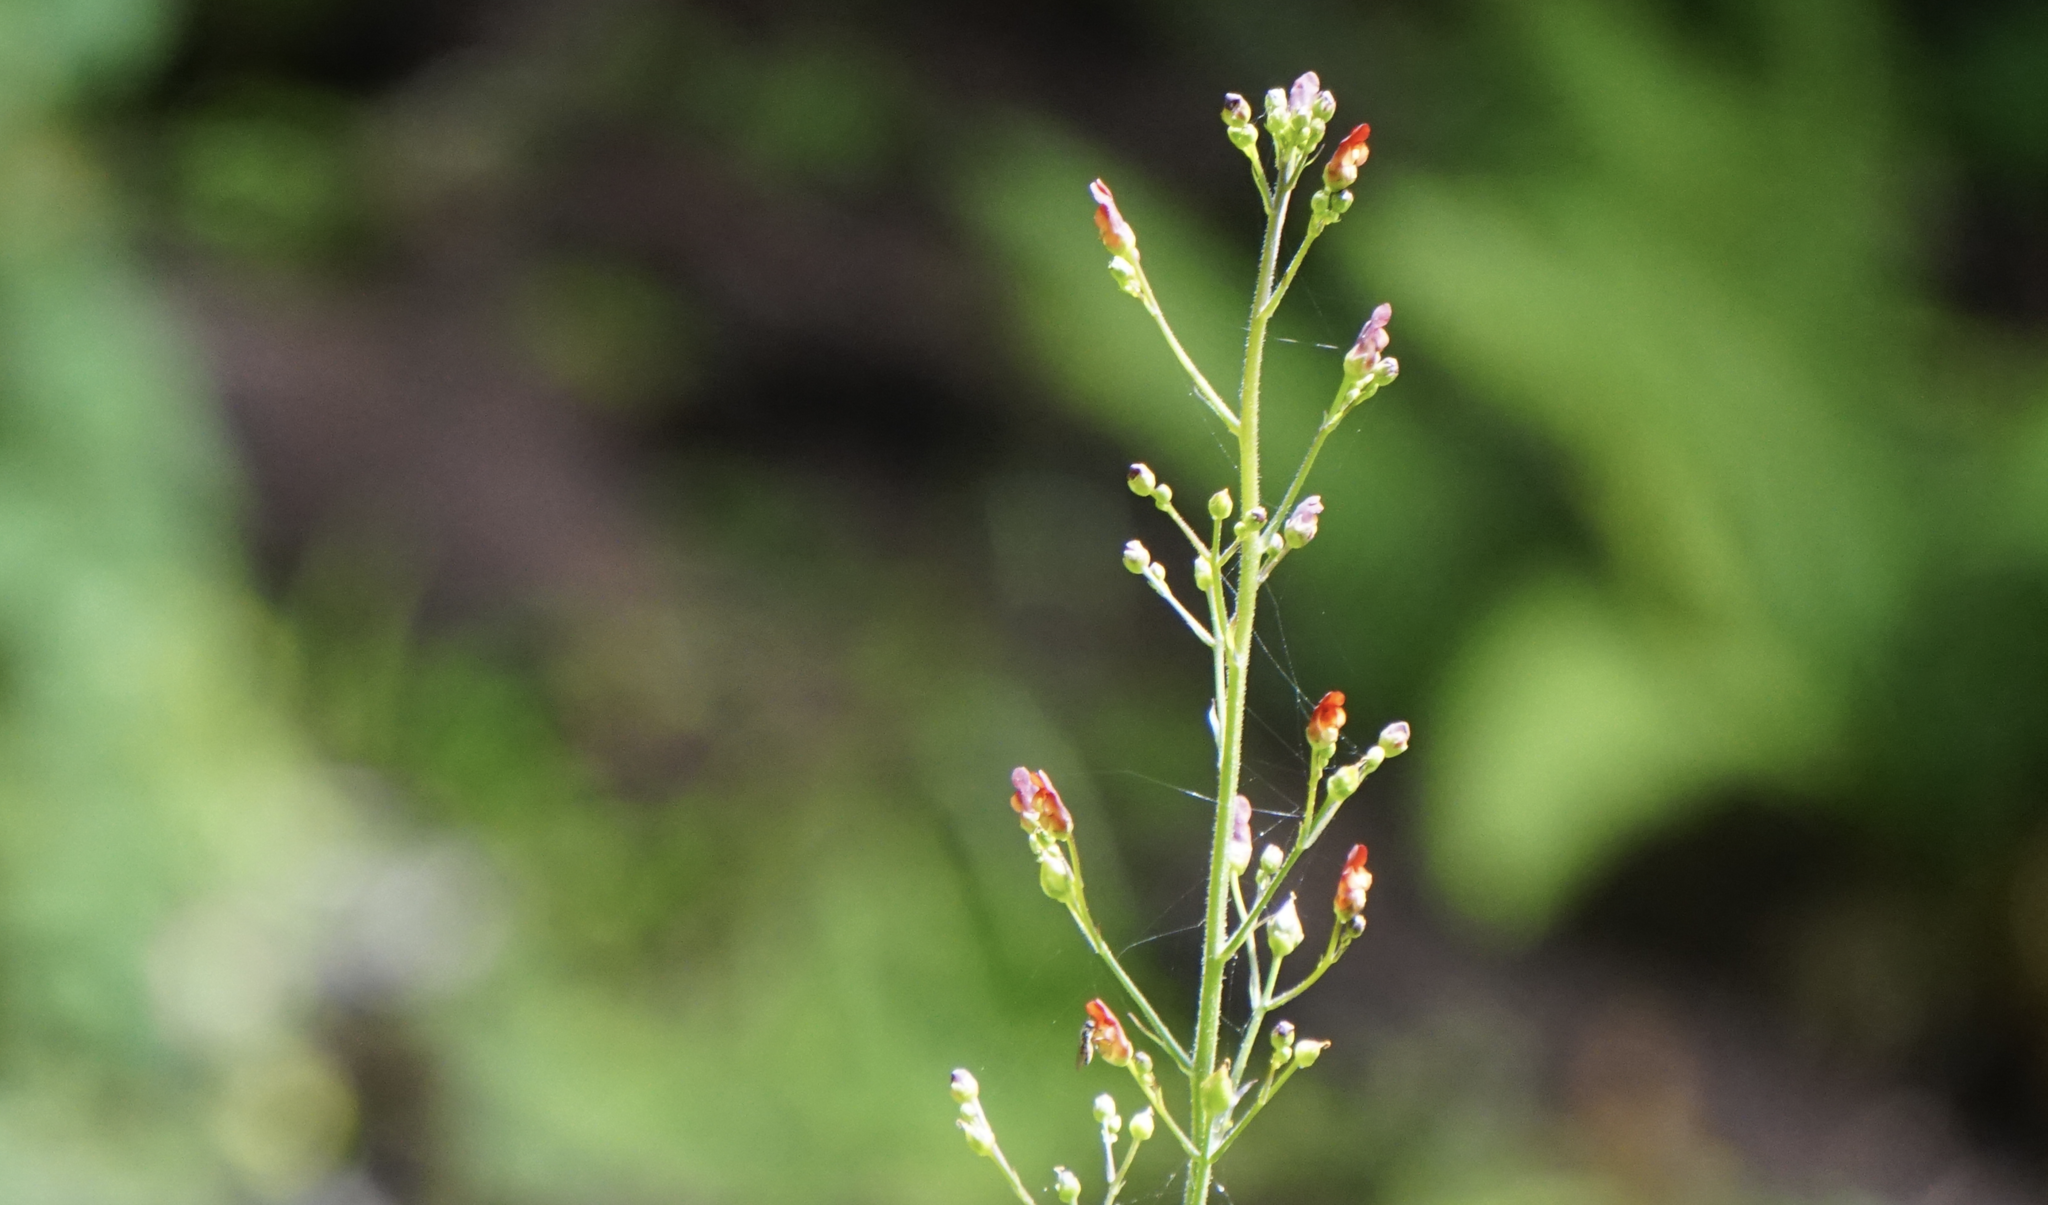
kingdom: Plantae
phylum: Tracheophyta
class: Magnoliopsida
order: Lamiales
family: Scrophulariaceae
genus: Scrophularia
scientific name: Scrophularia californica
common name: California figwort
